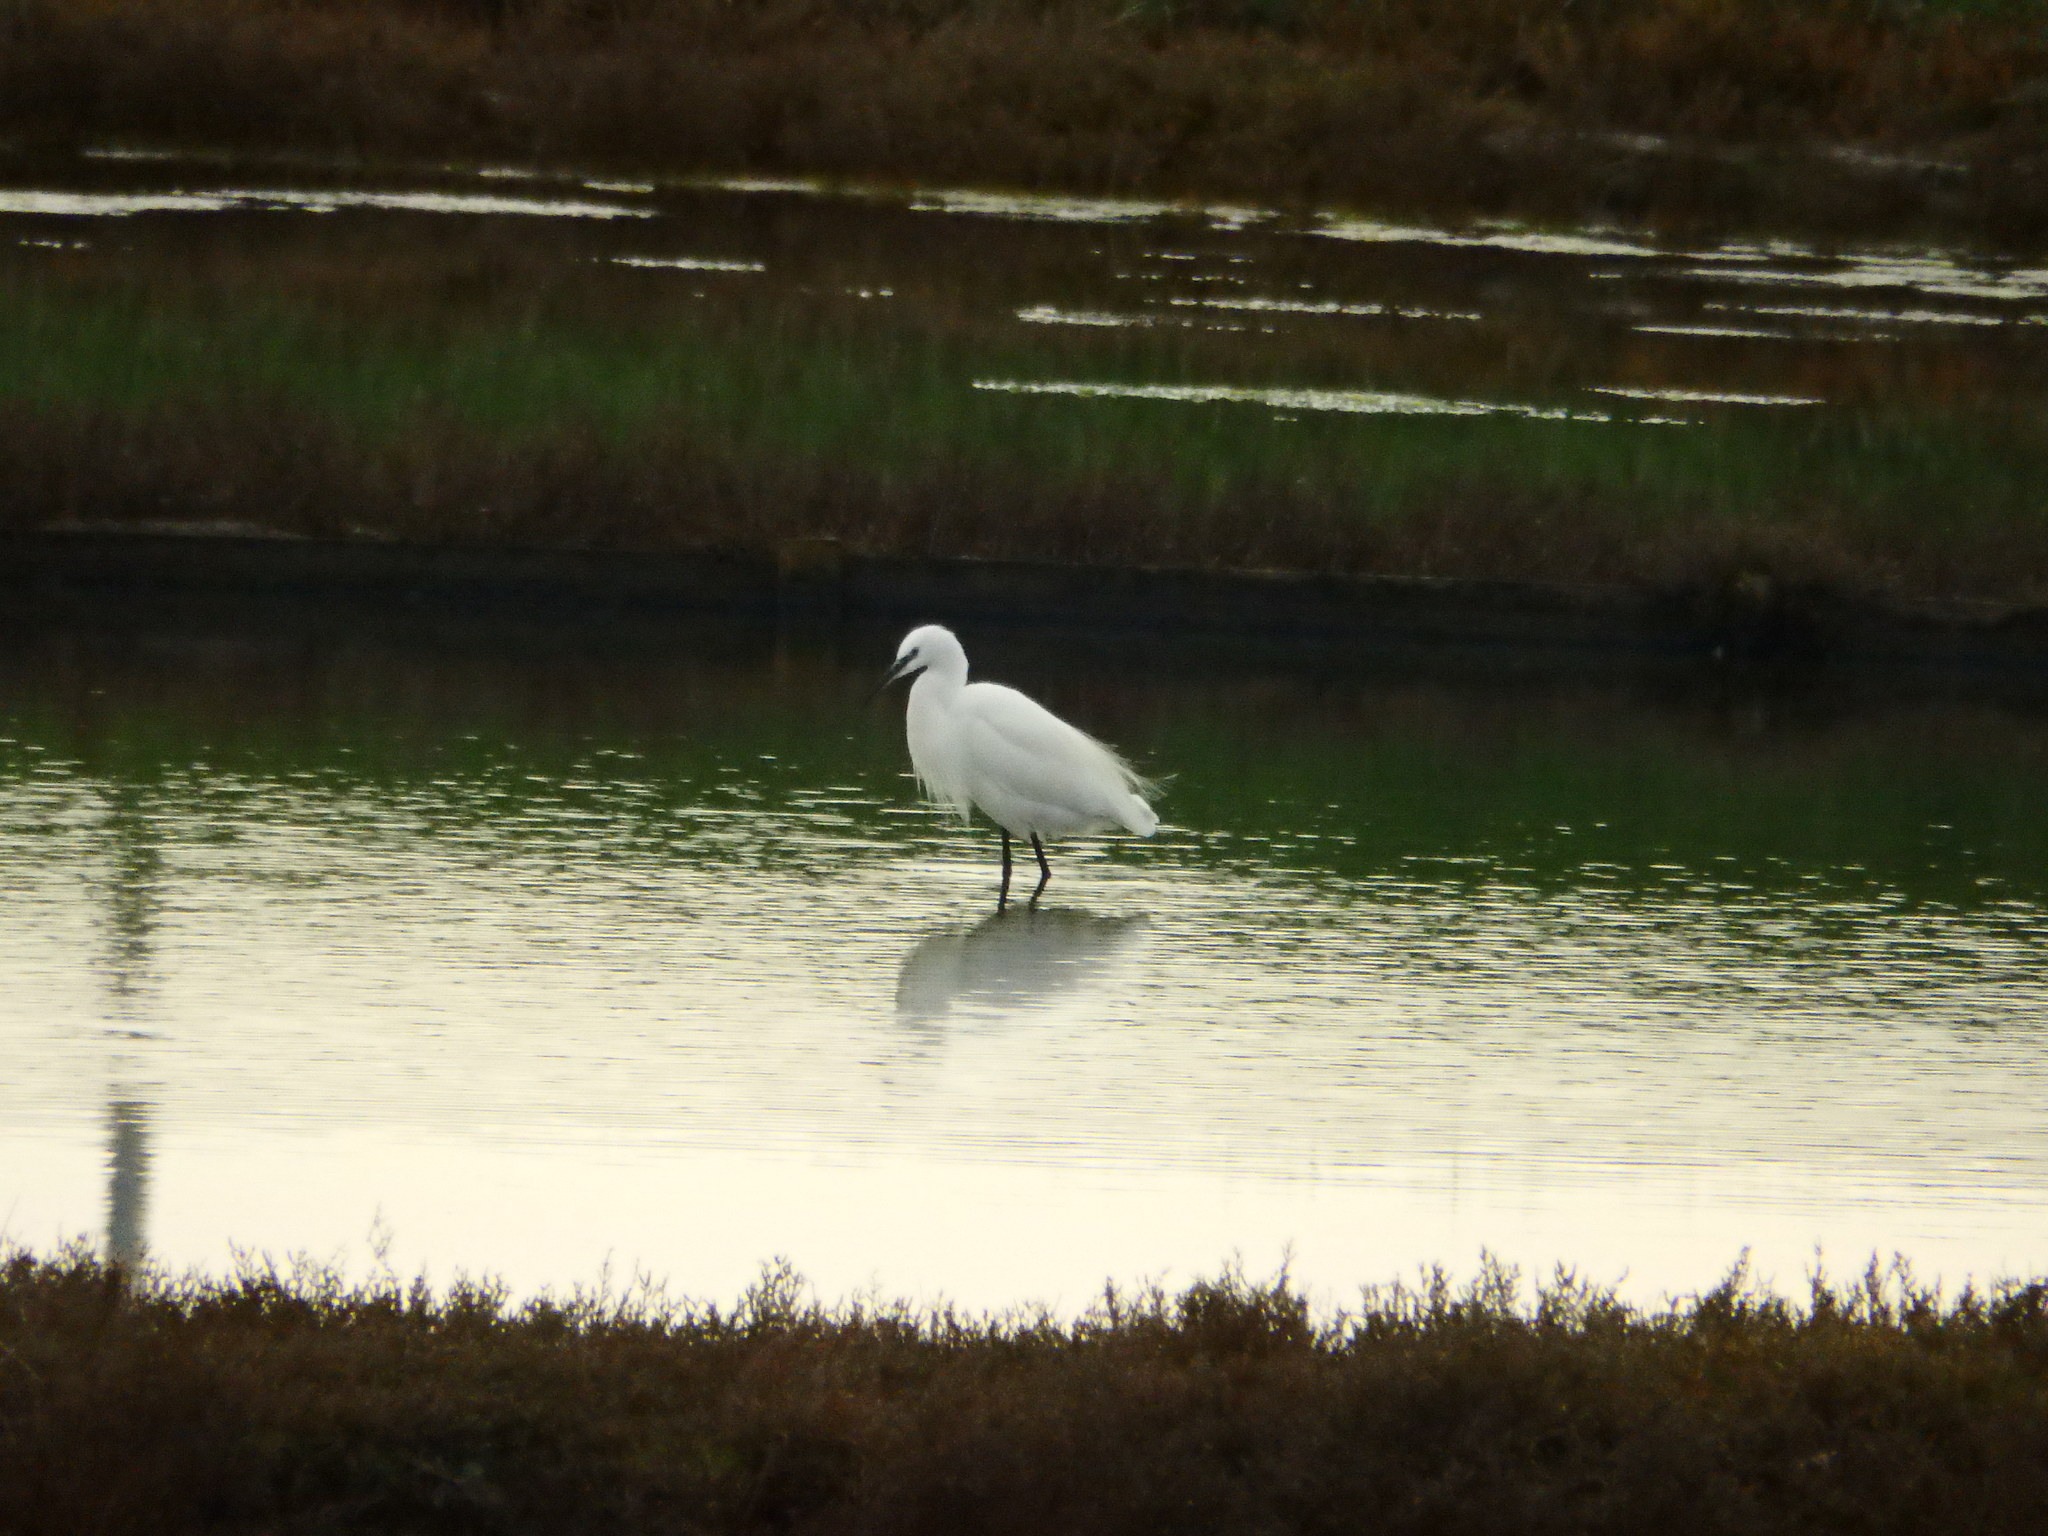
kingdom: Animalia
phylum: Chordata
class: Aves
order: Pelecaniformes
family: Ardeidae
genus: Egretta
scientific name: Egretta garzetta
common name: Little egret
